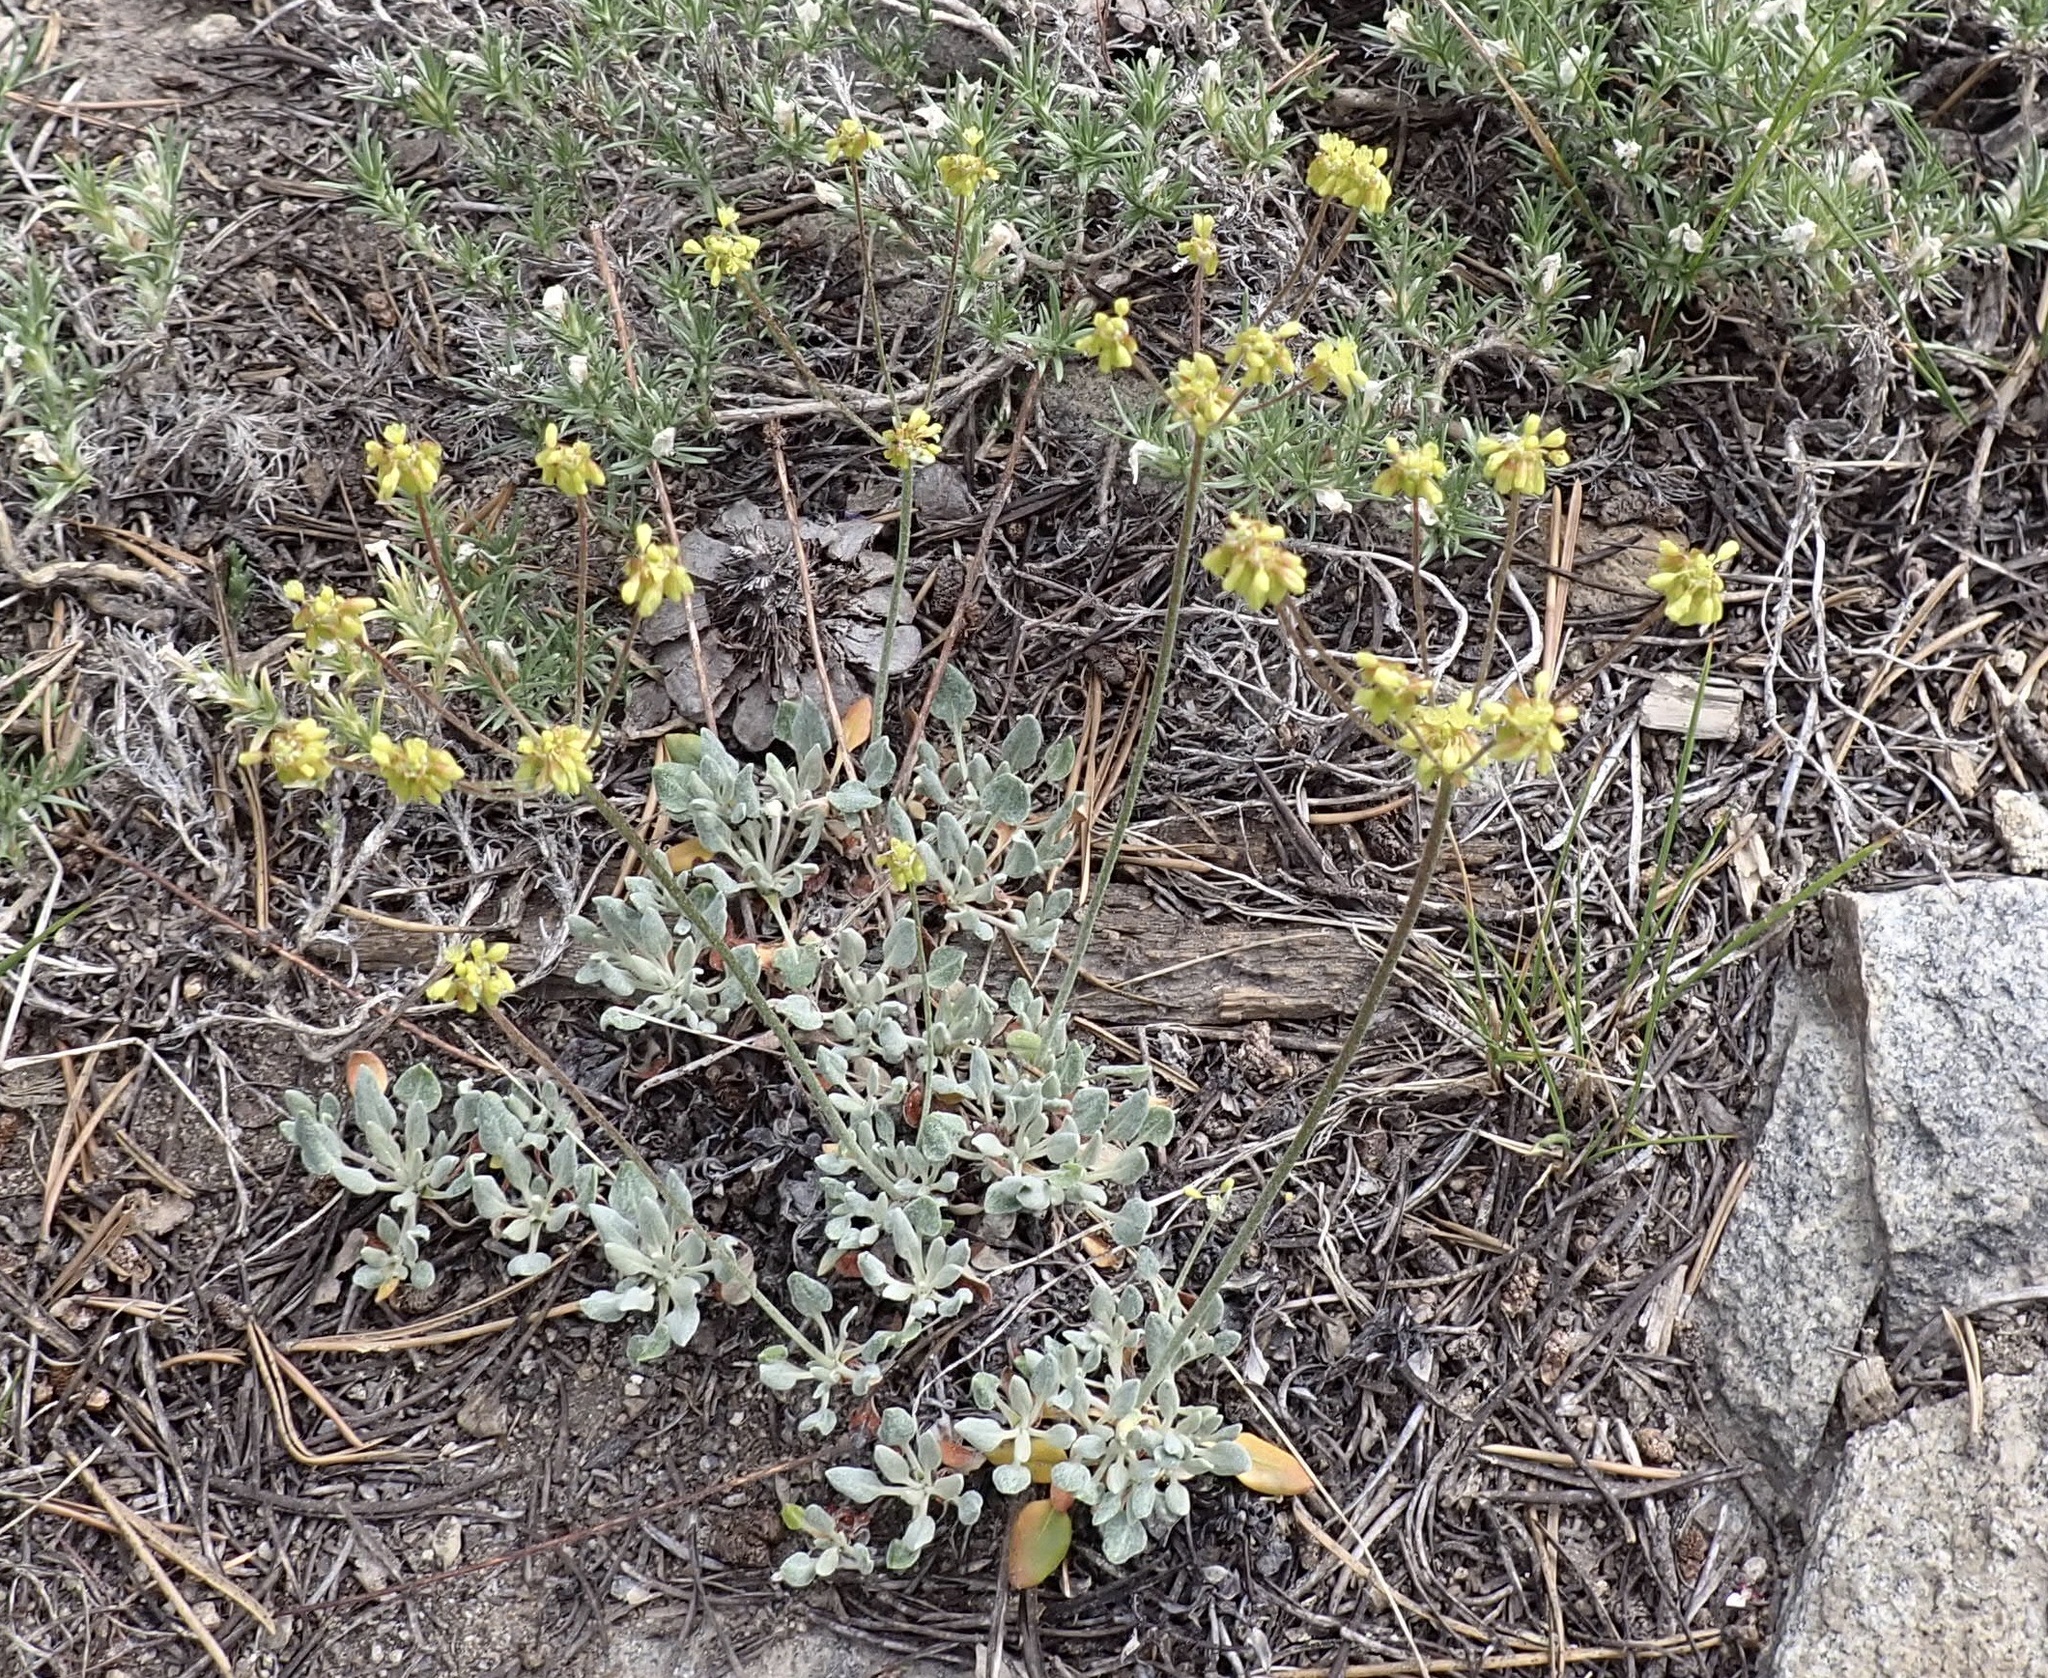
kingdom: Plantae
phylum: Tracheophyta
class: Magnoliopsida
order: Caryophyllales
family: Polygonaceae
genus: Eriogonum
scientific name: Eriogonum incanum
